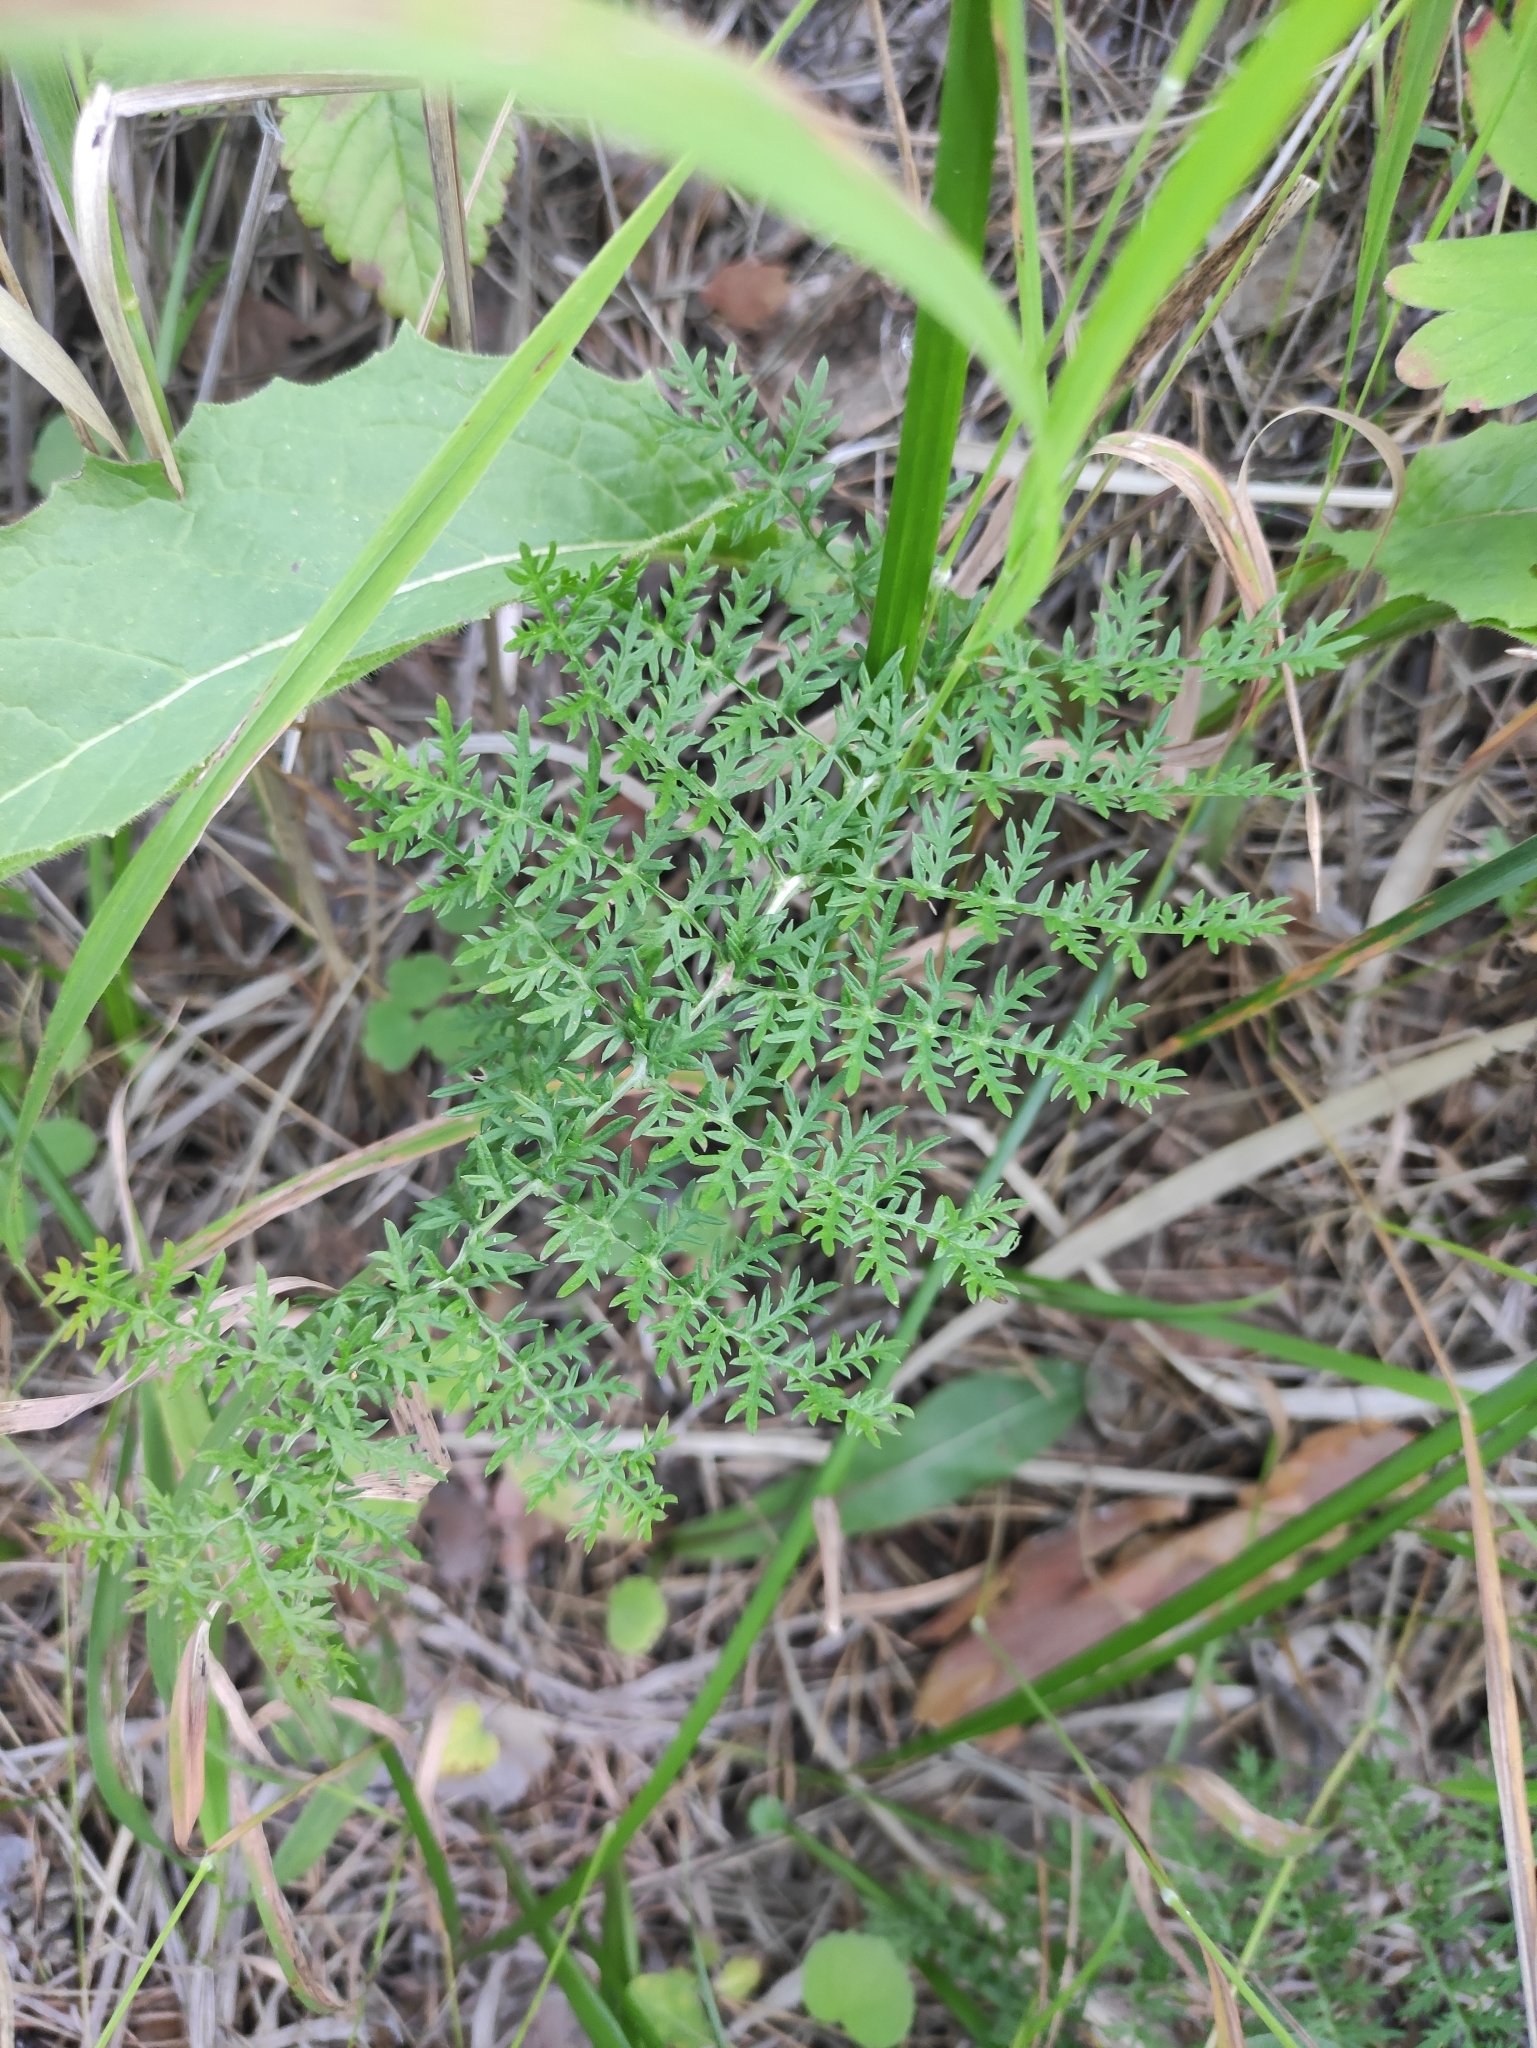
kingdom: Plantae
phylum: Tracheophyta
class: Magnoliopsida
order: Asterales
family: Asteraceae
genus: Artemisia
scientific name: Artemisia tanacetifolia
